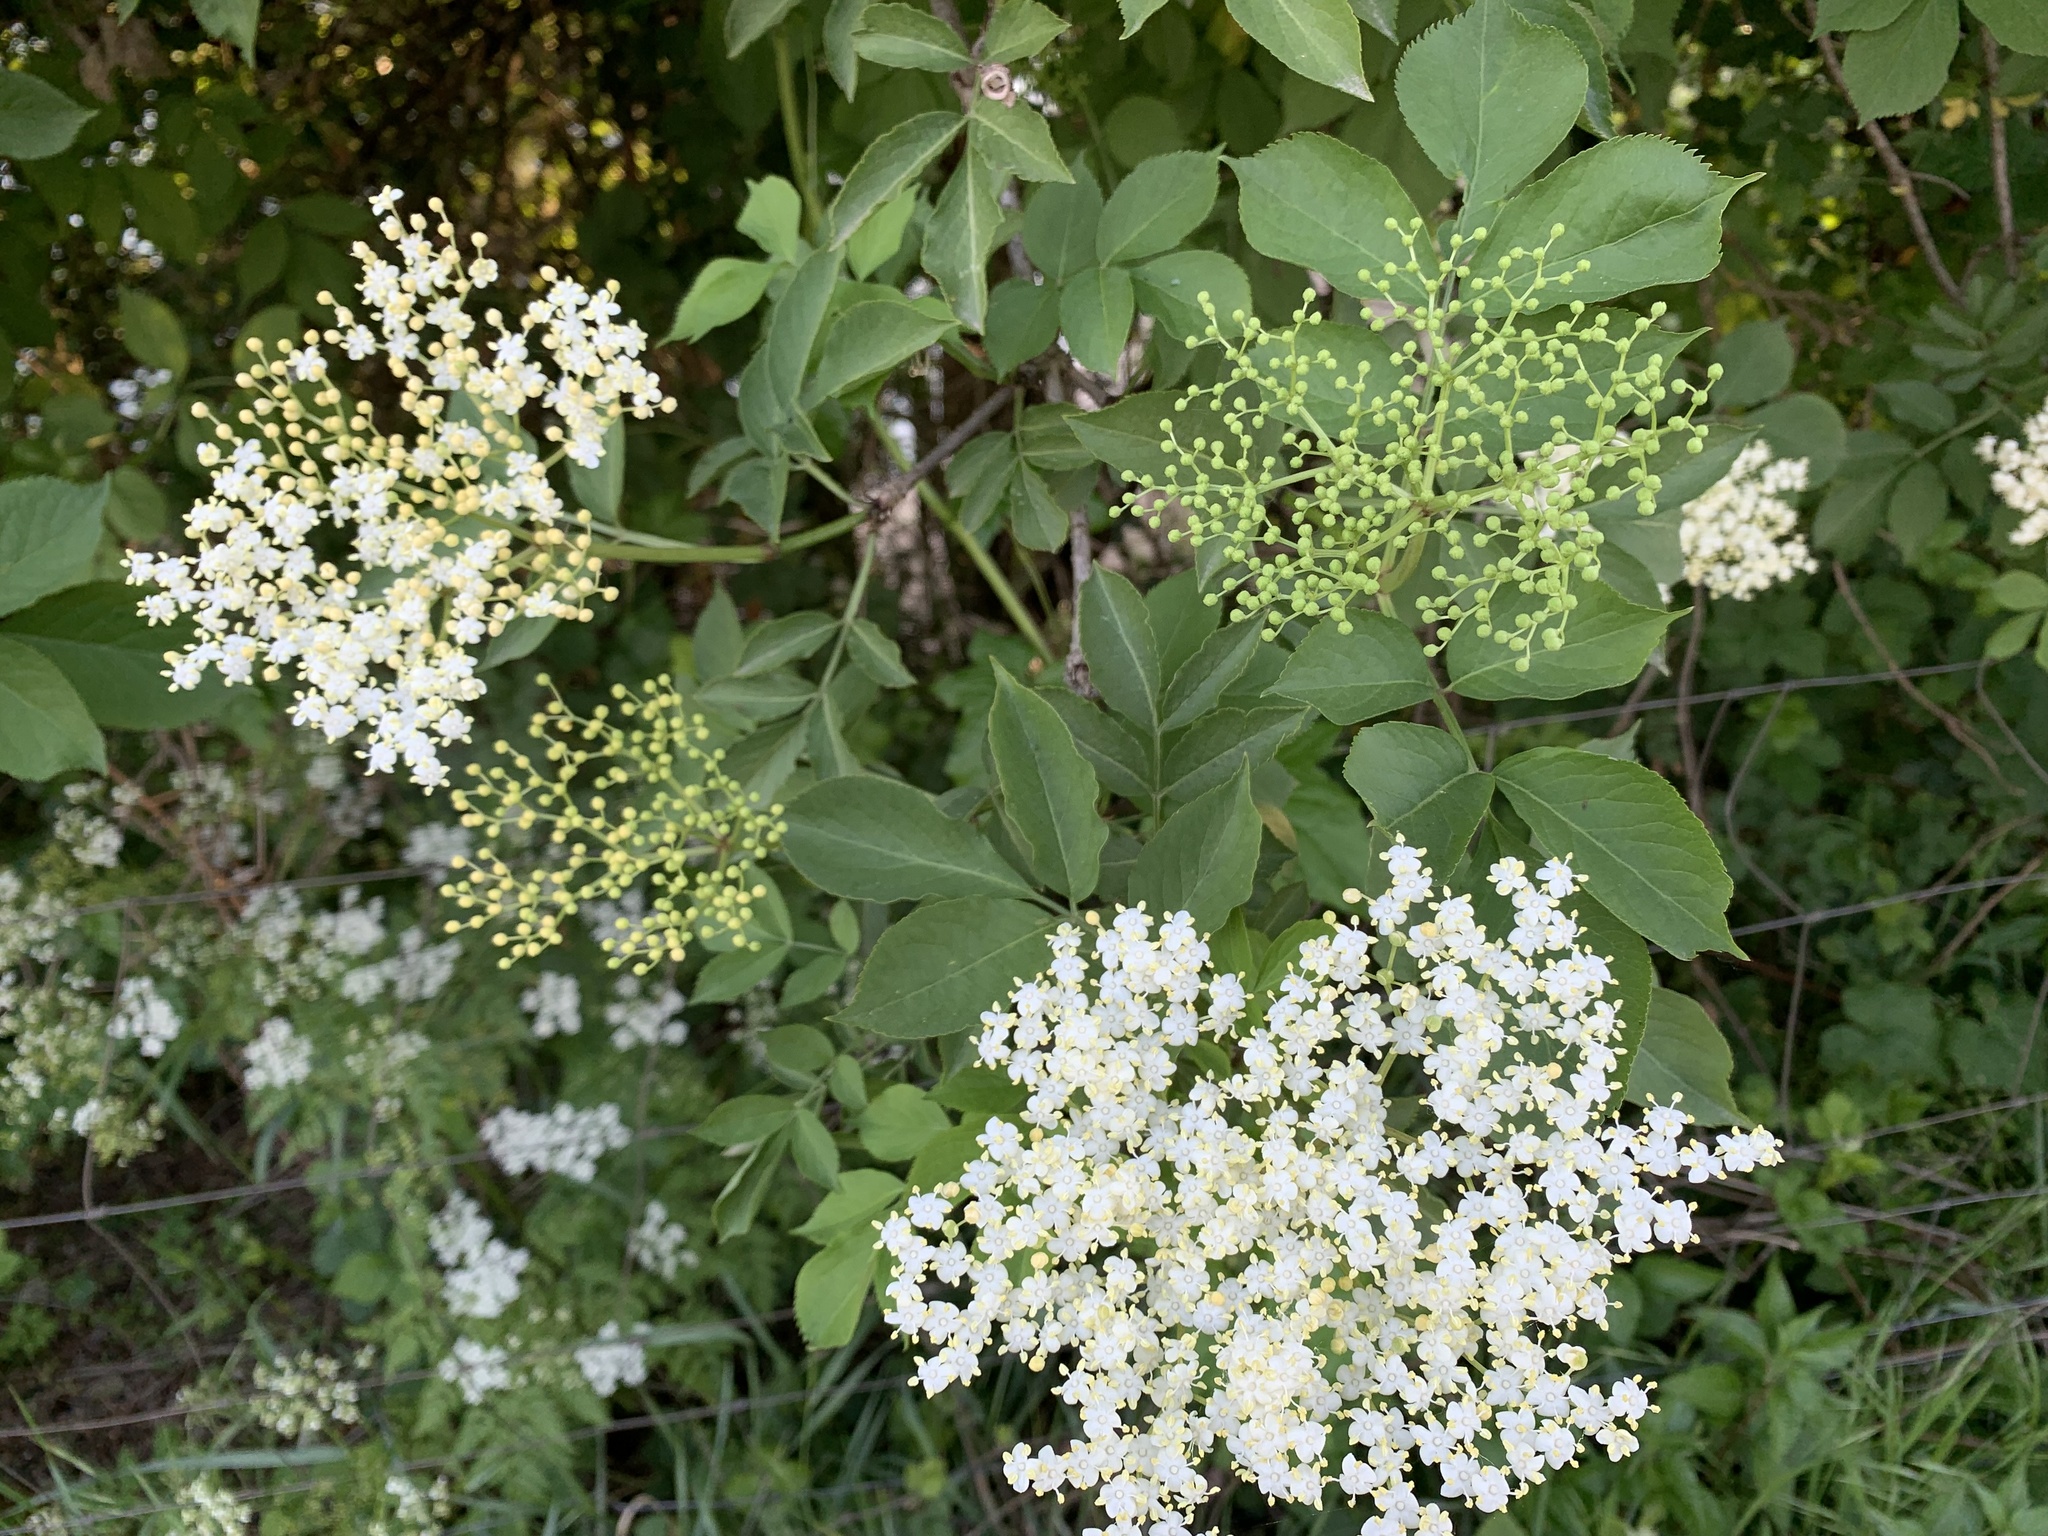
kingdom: Plantae
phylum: Tracheophyta
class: Magnoliopsida
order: Dipsacales
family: Viburnaceae
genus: Sambucus
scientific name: Sambucus nigra
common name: Elder
